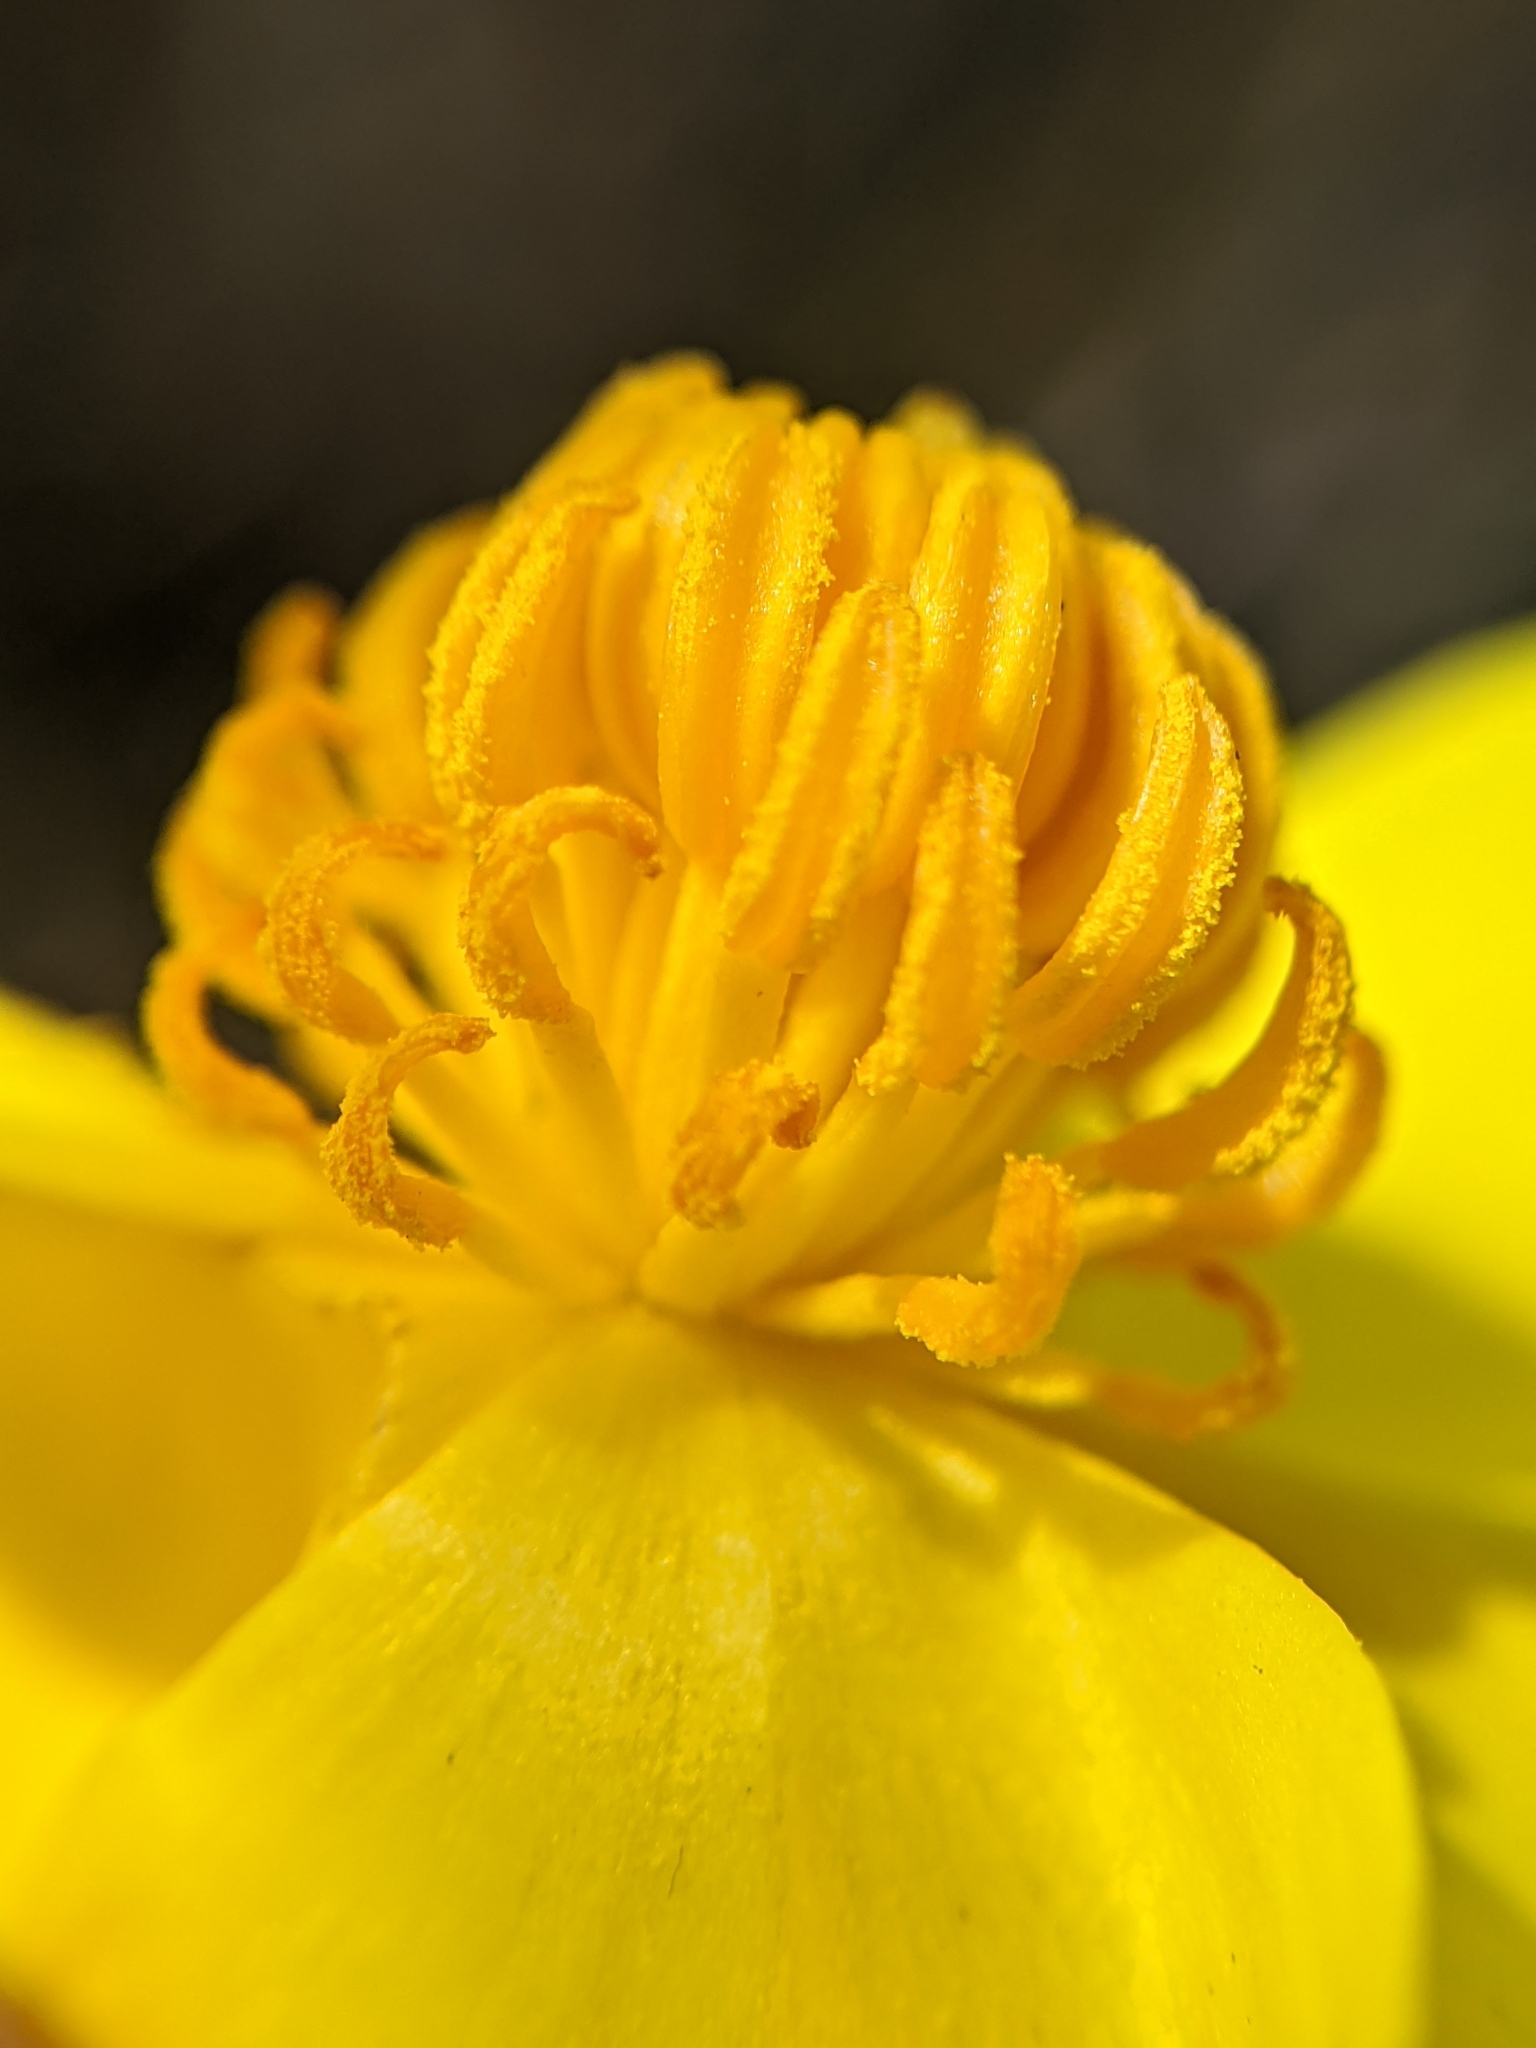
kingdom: Plantae
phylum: Tracheophyta
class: Magnoliopsida
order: Ranunculales
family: Papaveraceae
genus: Dendromecon
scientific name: Dendromecon rigida
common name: Tree poppy
